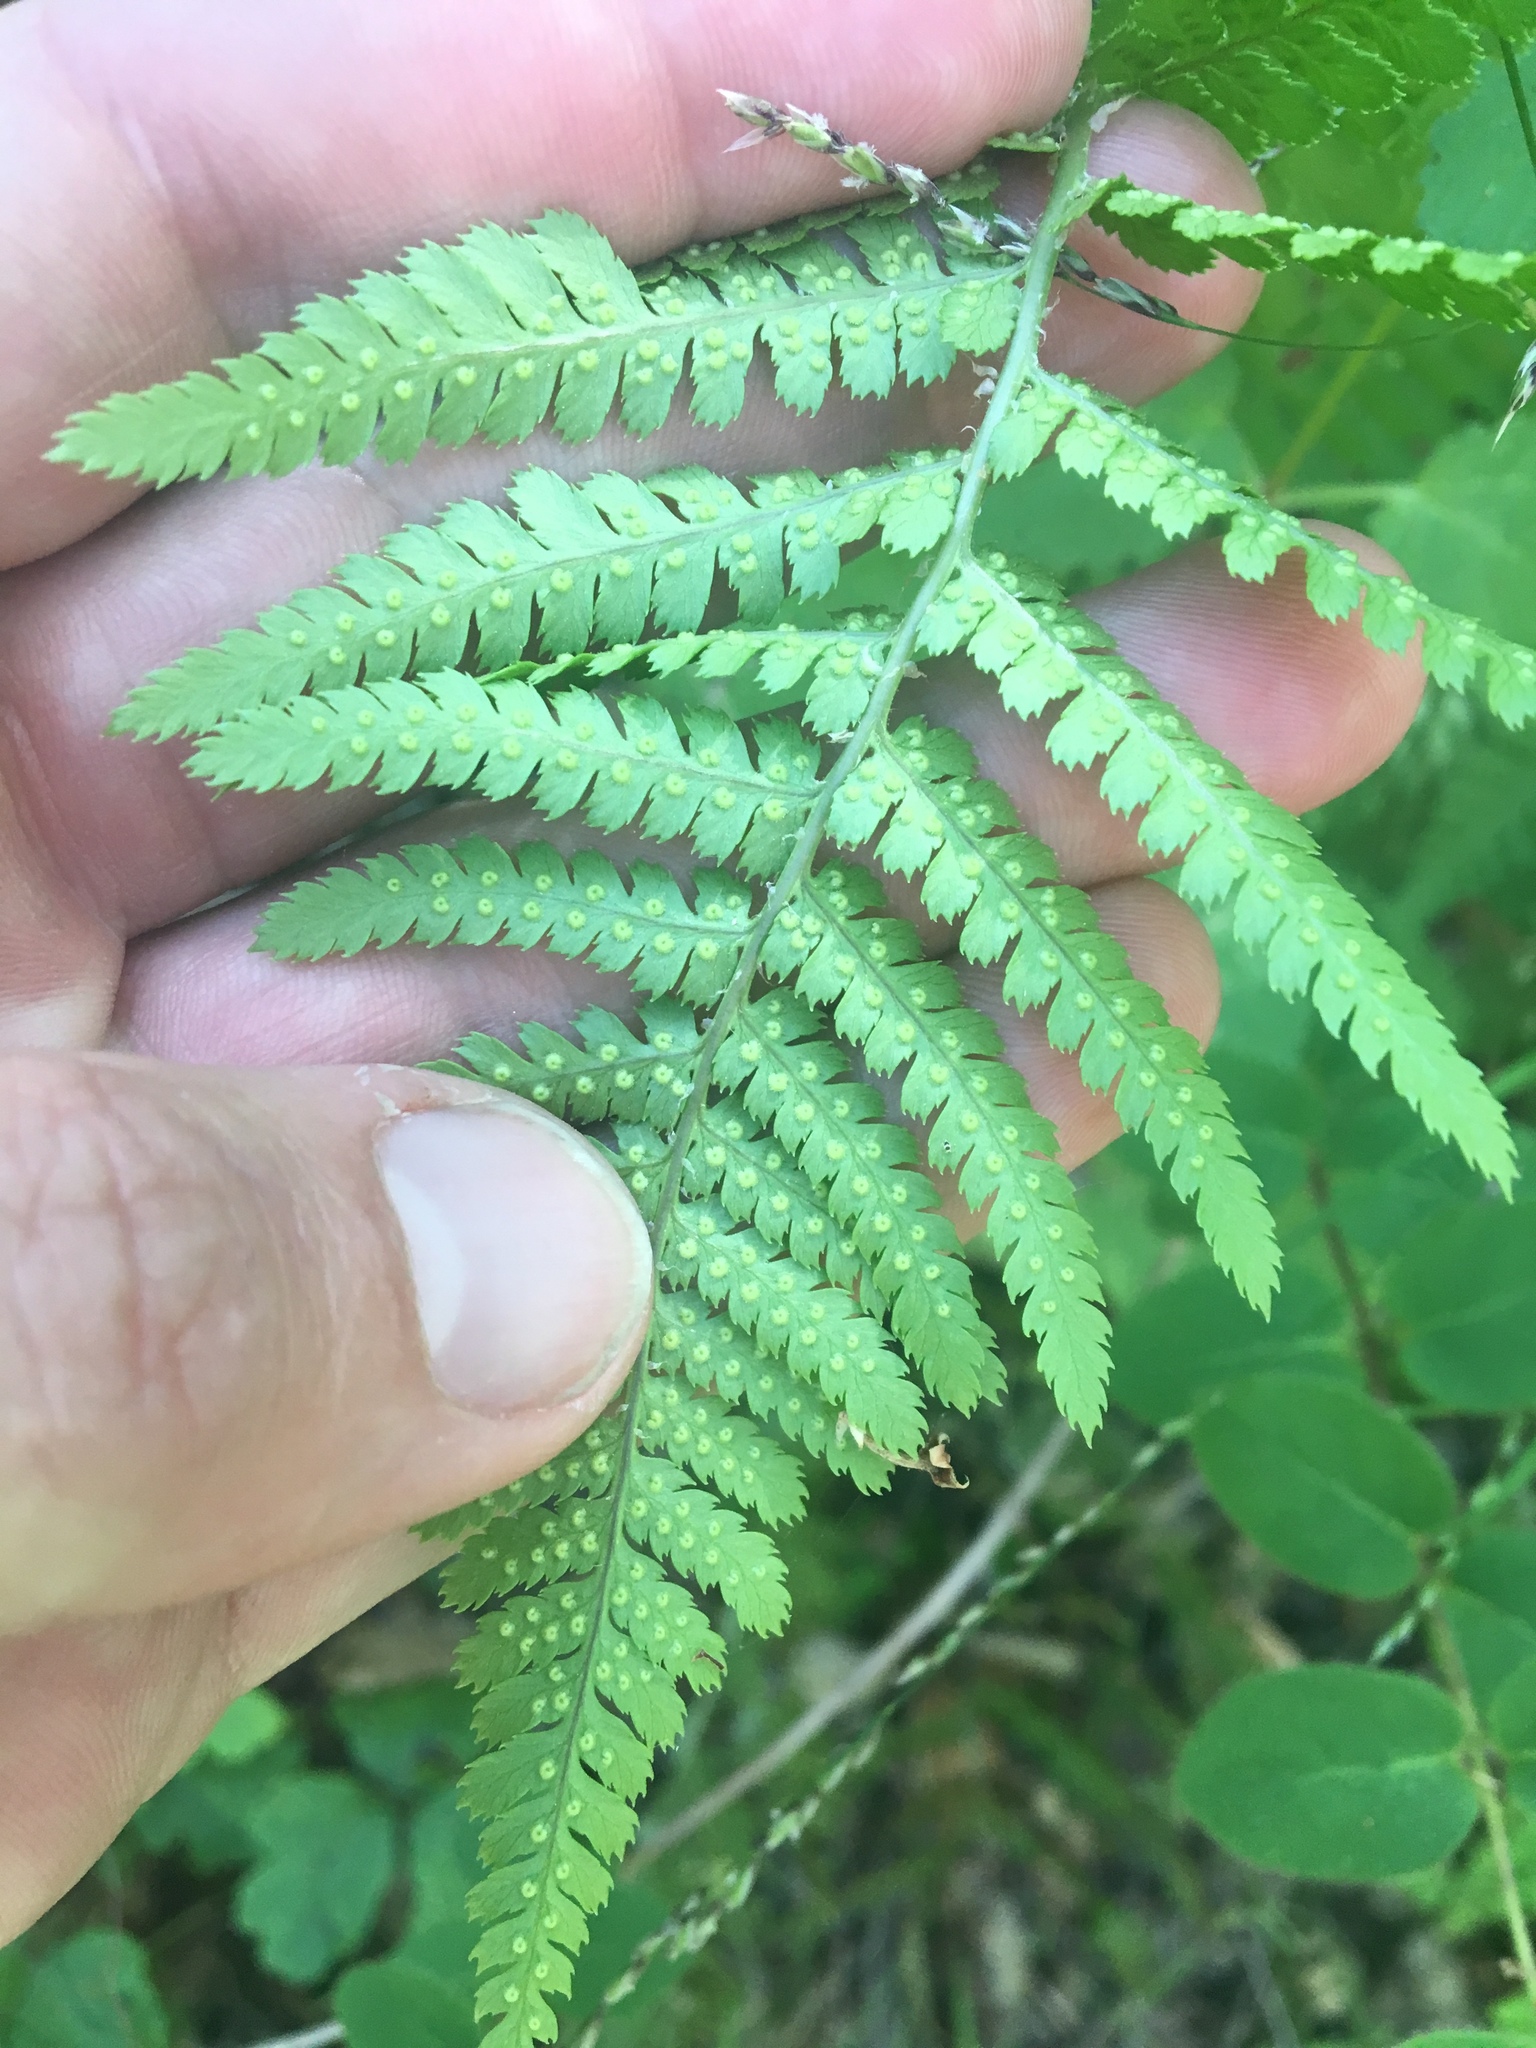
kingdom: Plantae
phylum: Tracheophyta
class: Polypodiopsida
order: Polypodiales
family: Athyriaceae
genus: Athyrium
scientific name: Athyrium filix-femina
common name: Lady fern
